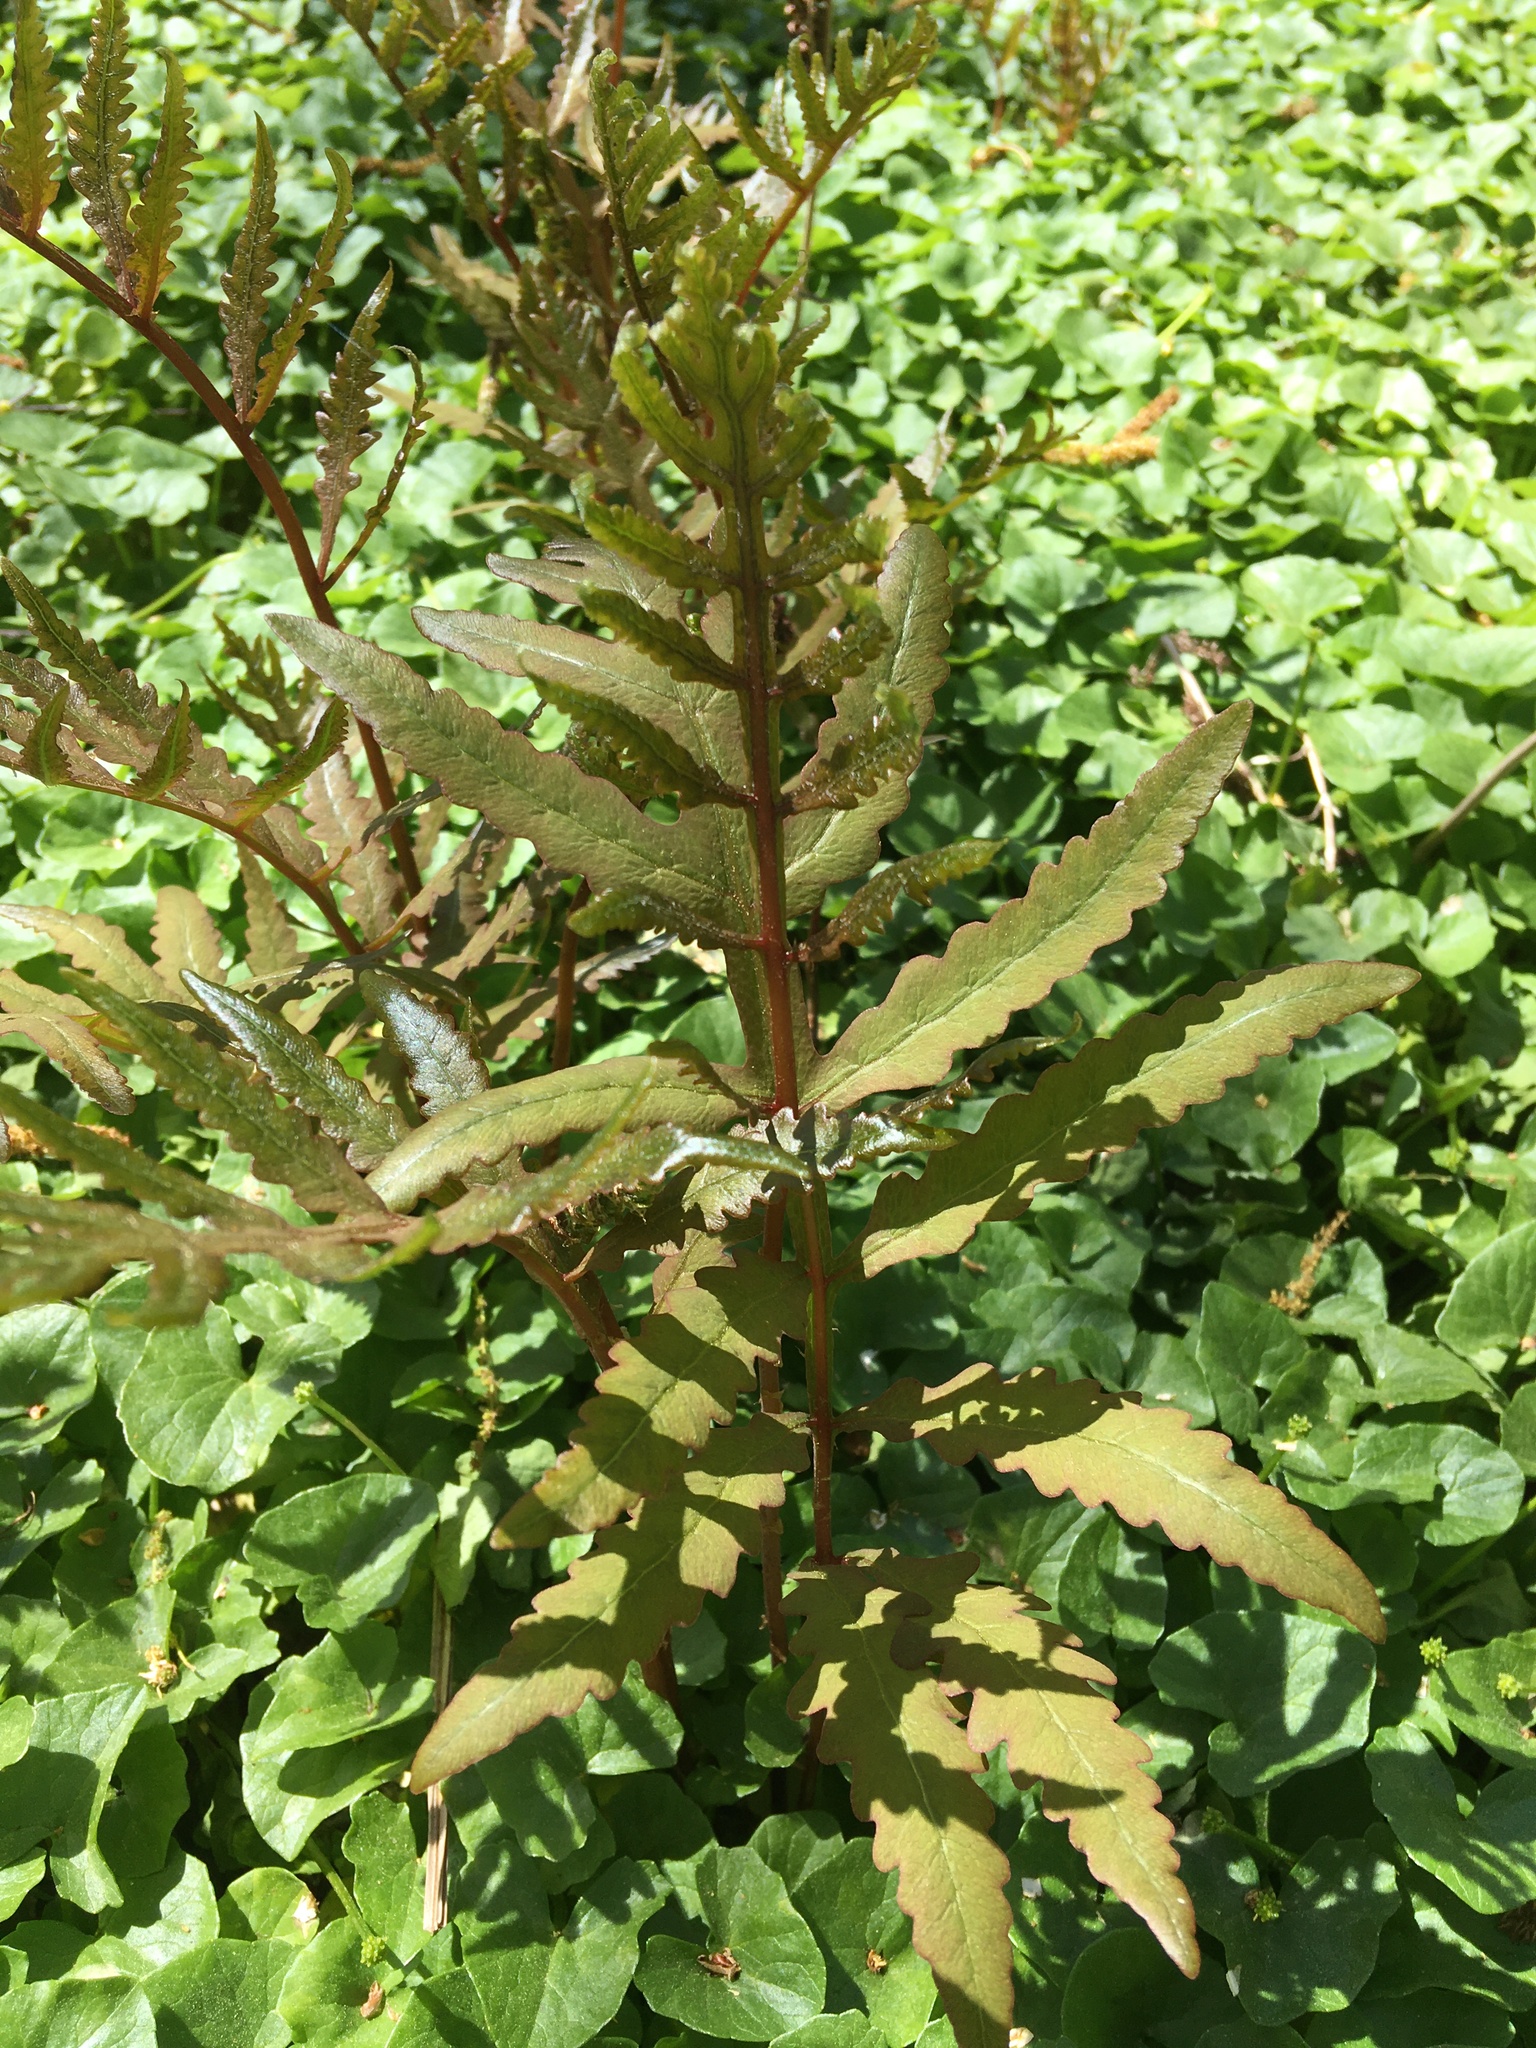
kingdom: Plantae
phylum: Tracheophyta
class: Polypodiopsida
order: Polypodiales
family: Onocleaceae
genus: Onoclea
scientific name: Onoclea sensibilis
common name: Sensitive fern
